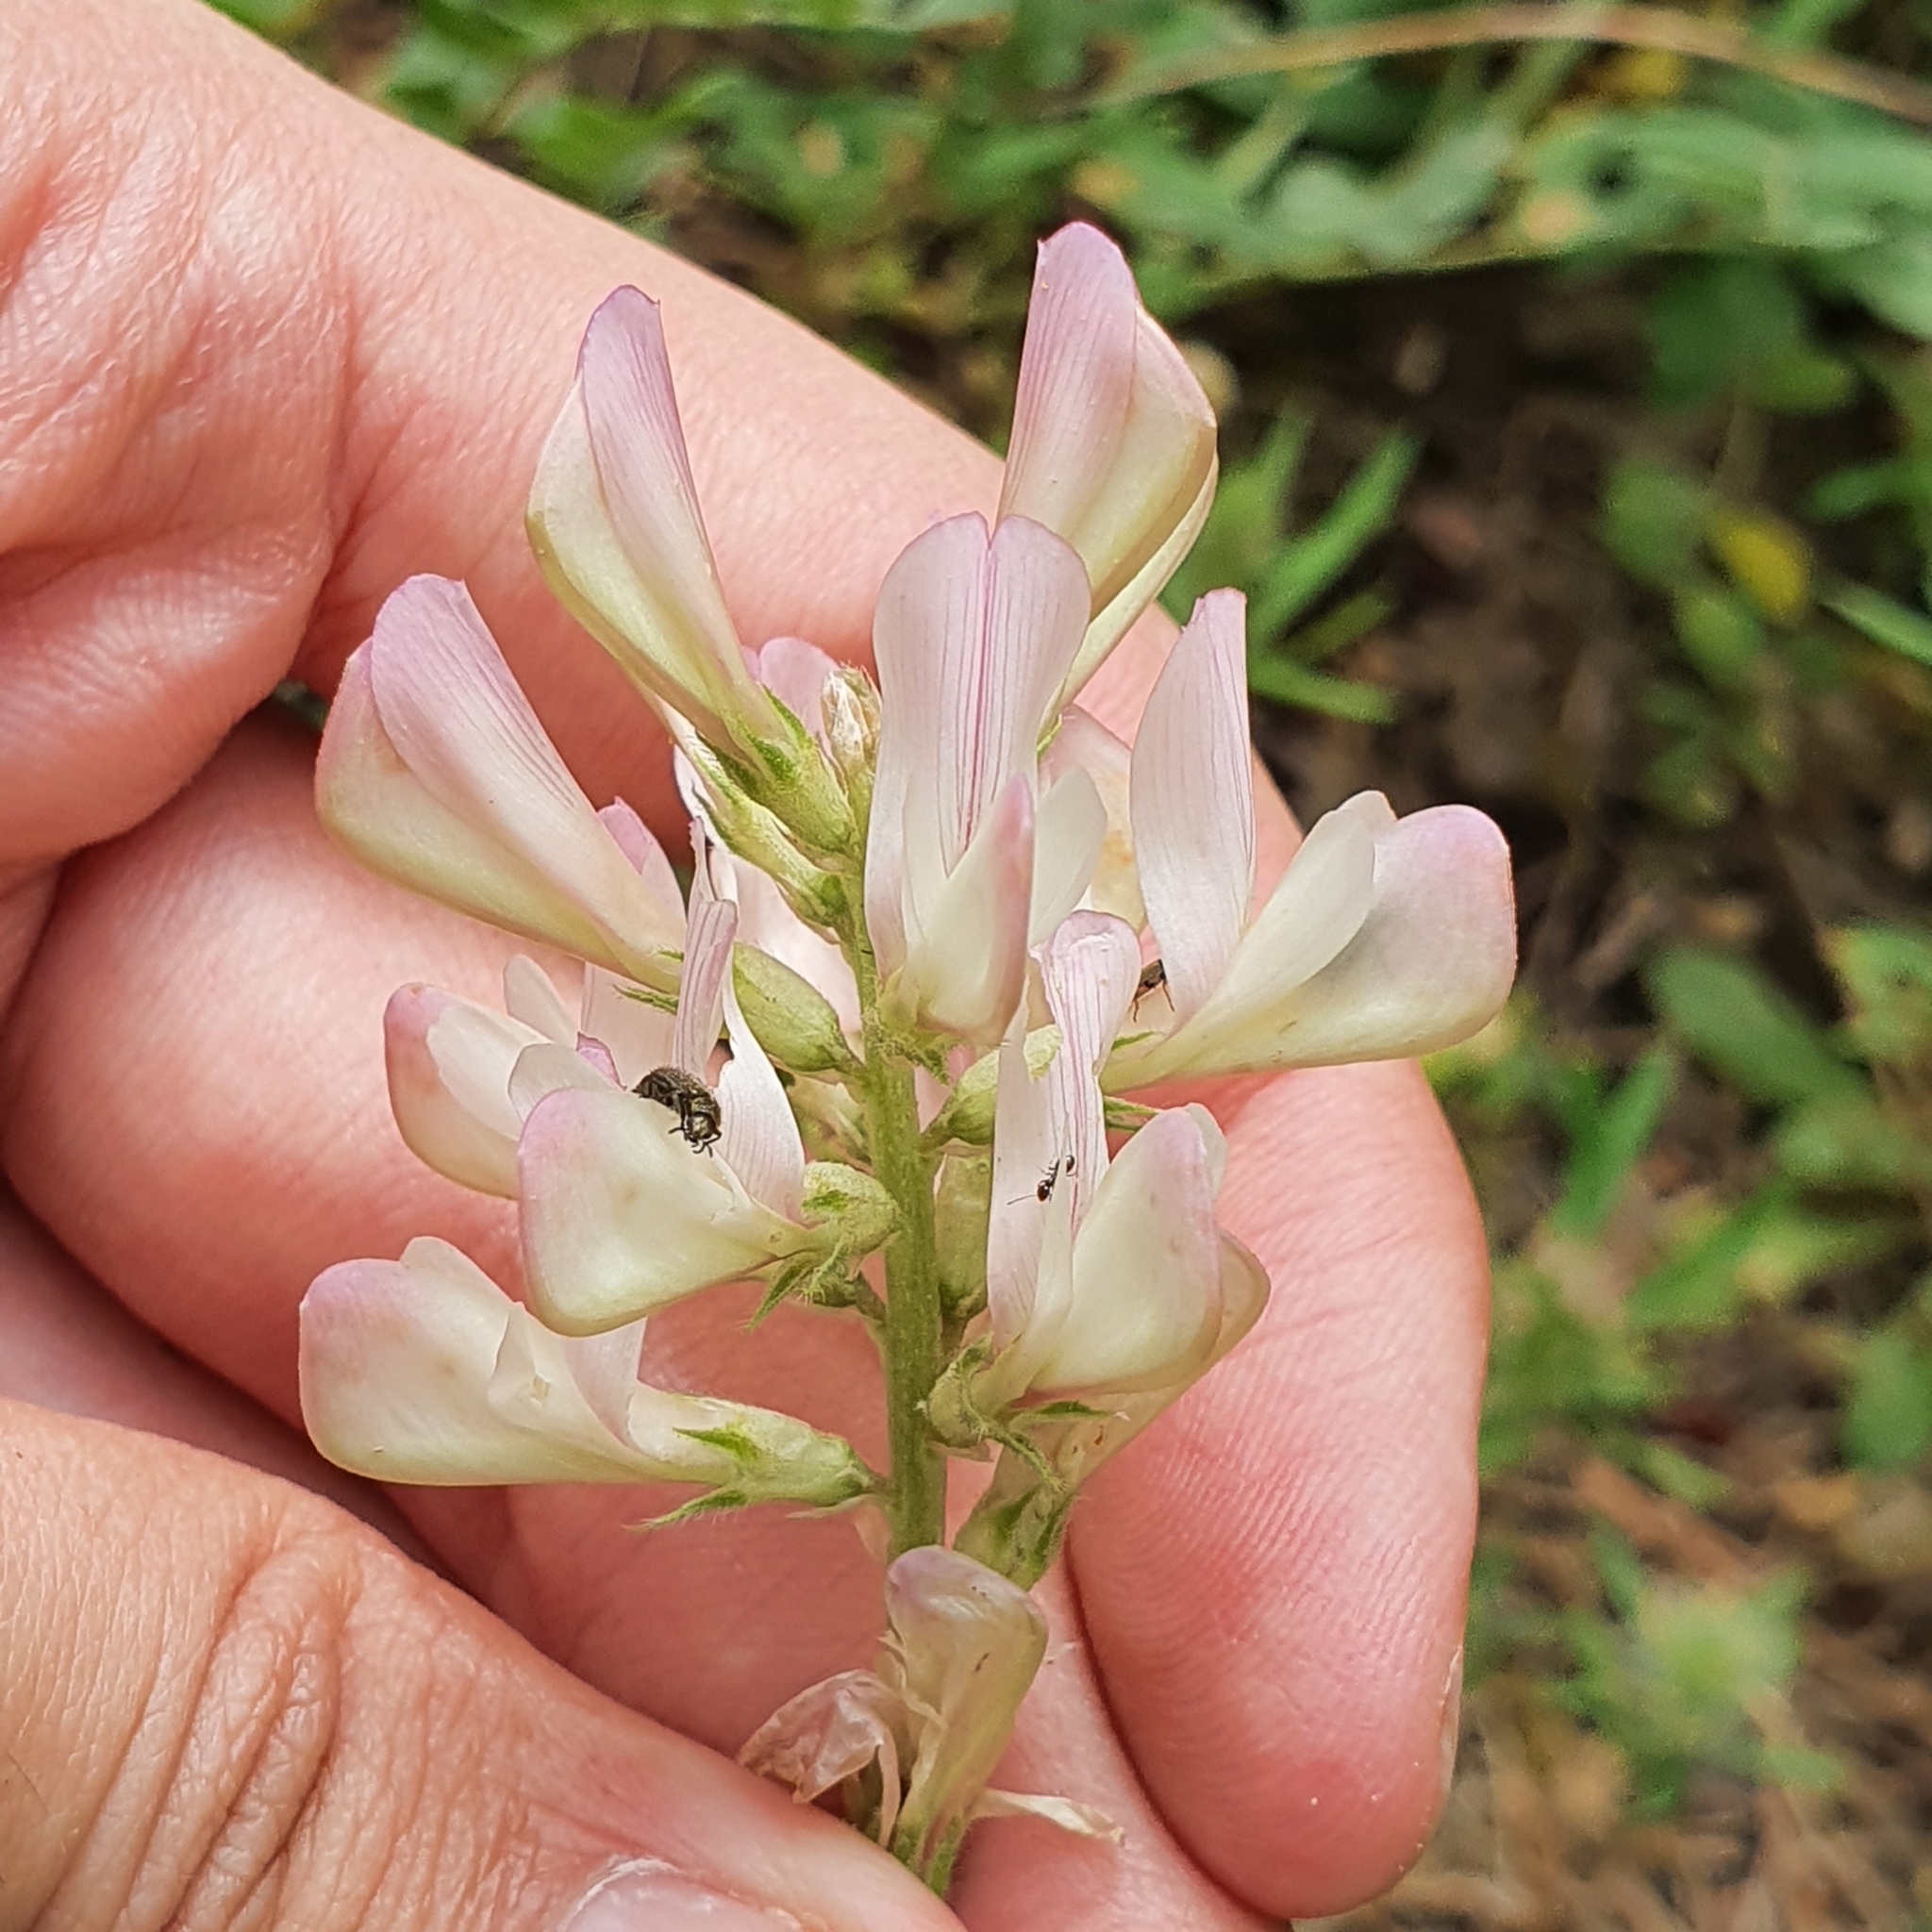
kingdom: Plantae
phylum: Tracheophyta
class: Magnoliopsida
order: Fabales
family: Fabaceae
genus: Sulla
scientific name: Sulla pallida
